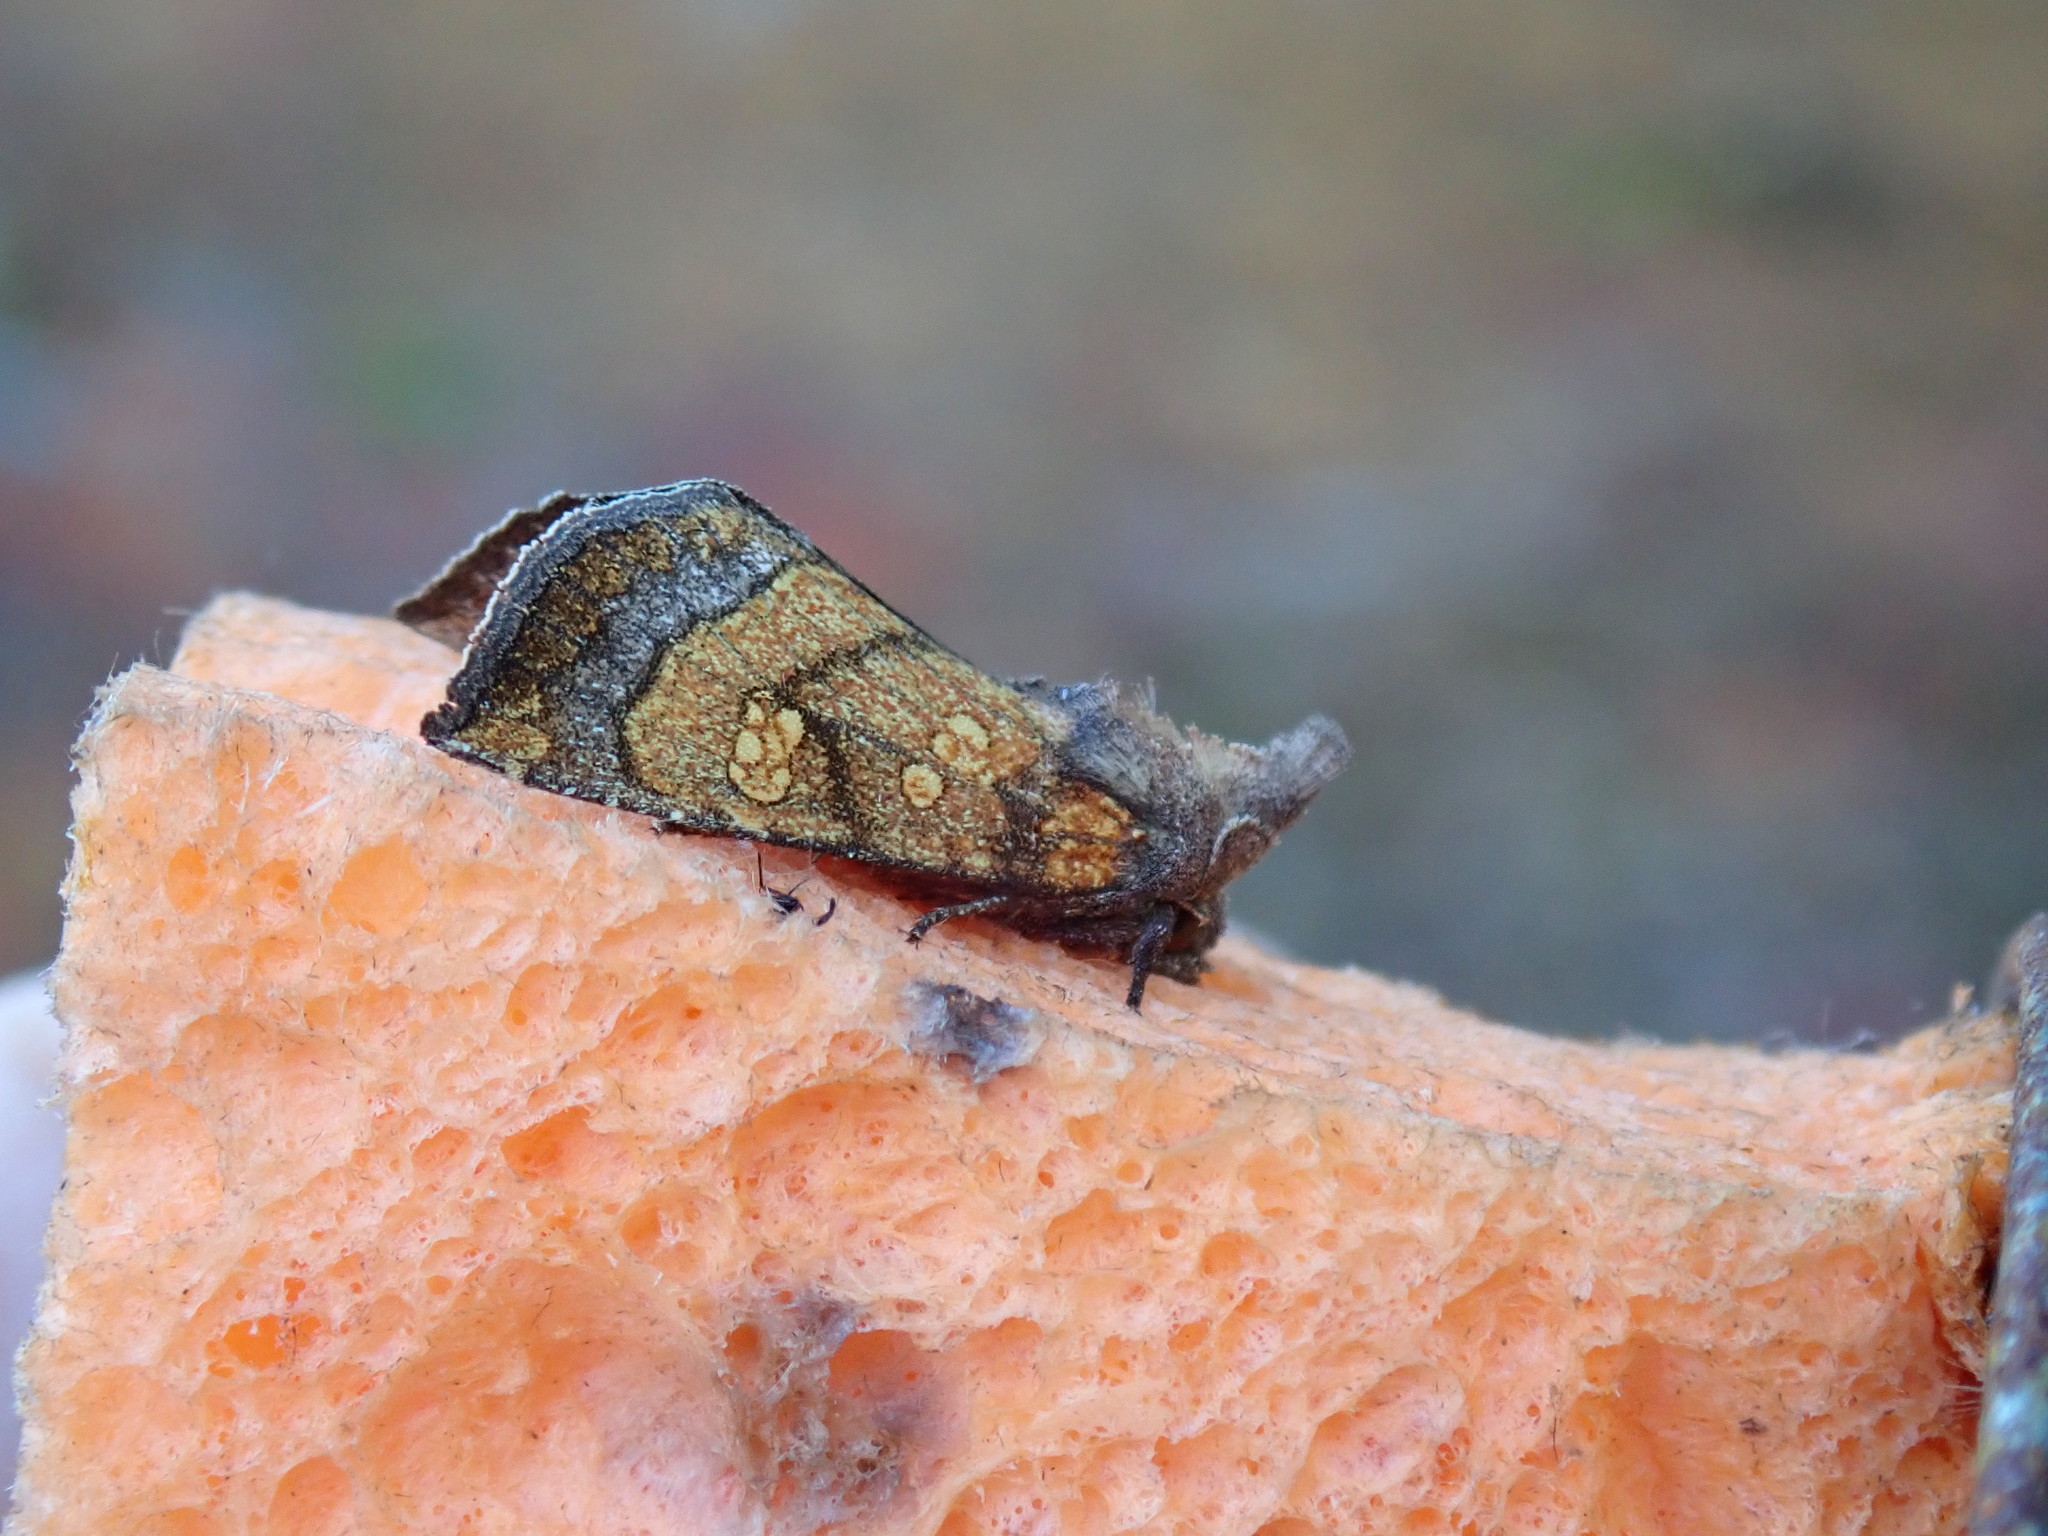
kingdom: Animalia
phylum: Arthropoda
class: Insecta
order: Lepidoptera
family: Noctuidae
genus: Papaipema
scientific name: Papaipema impecuniosa
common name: Aster borer moth
